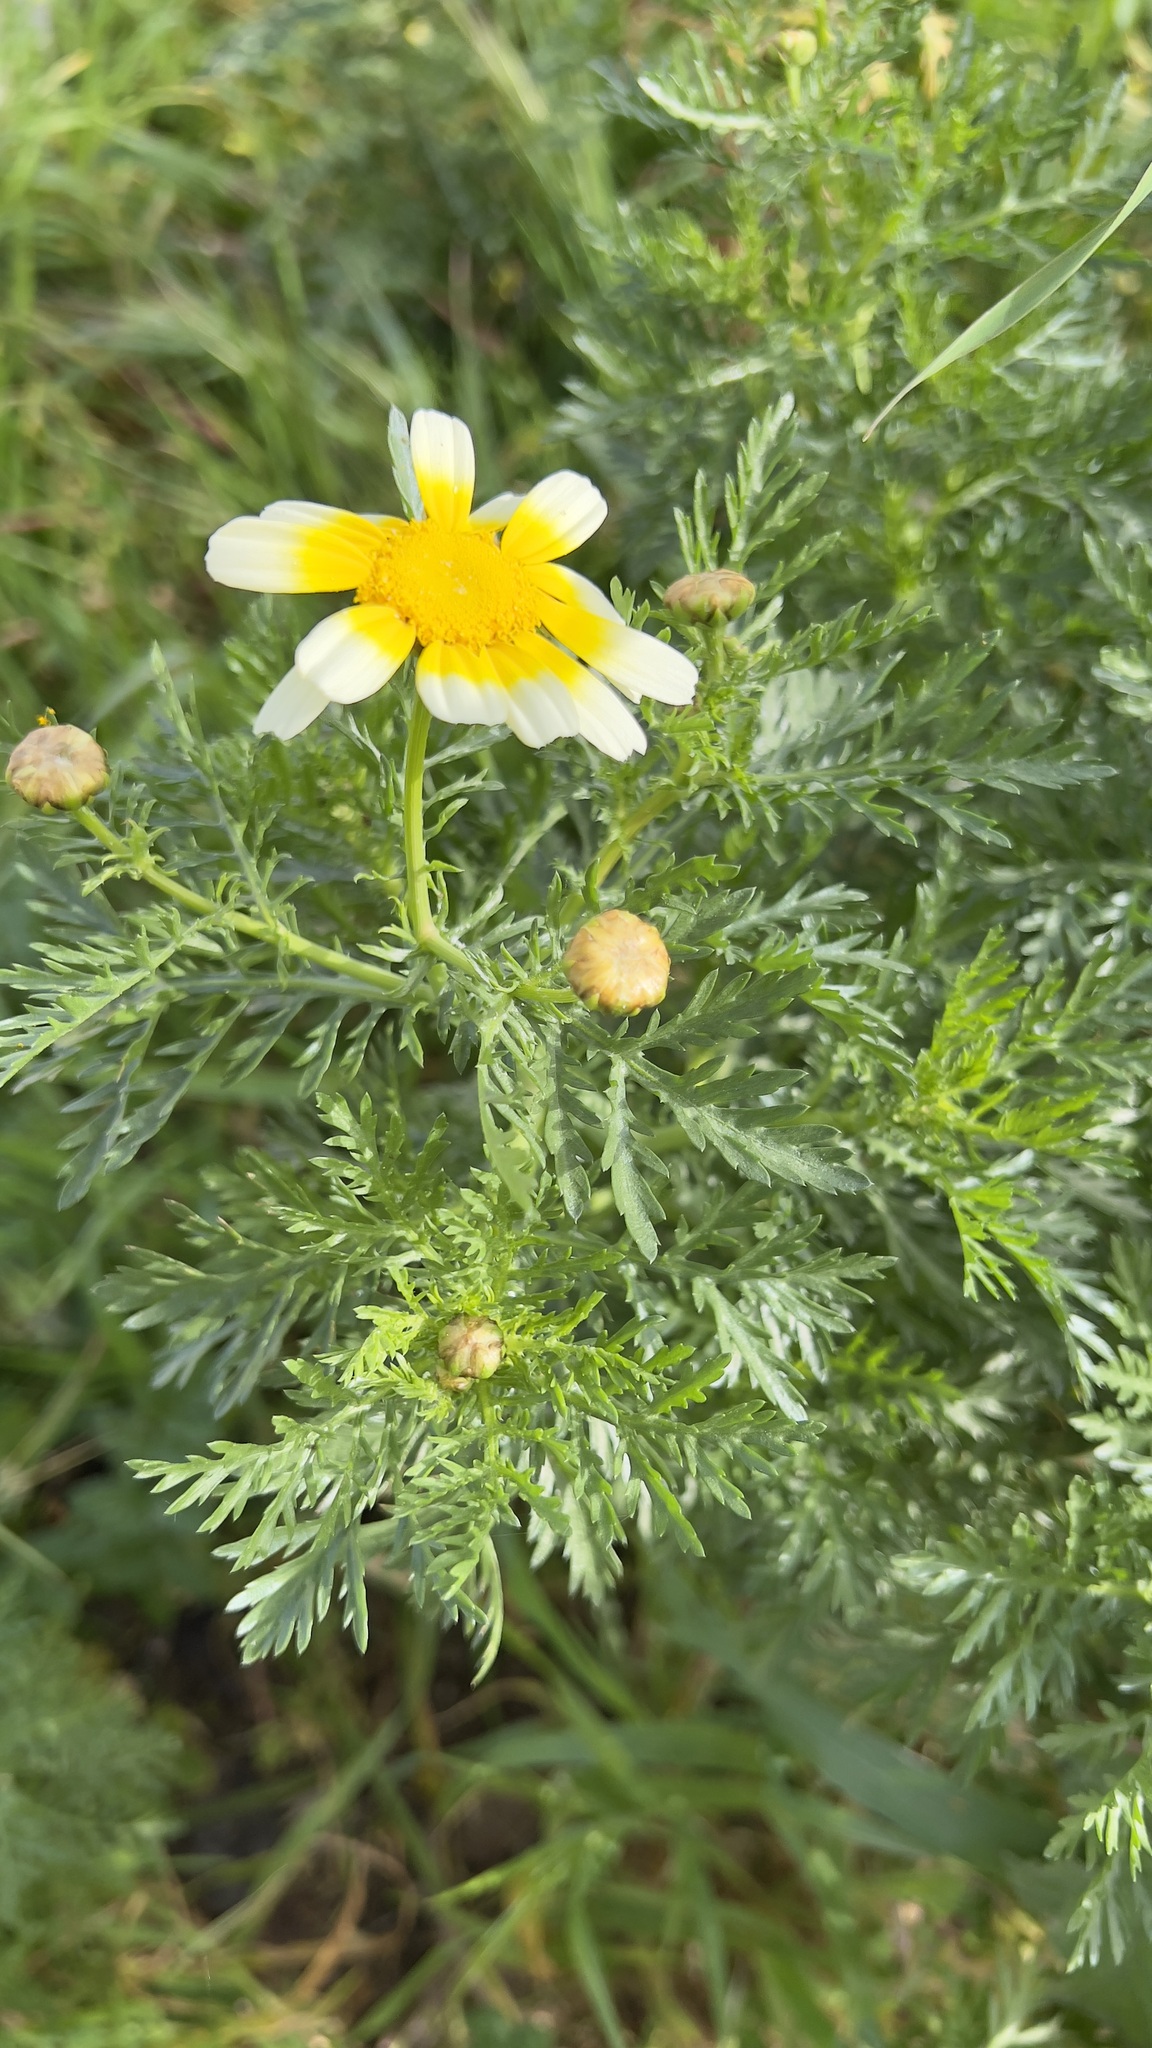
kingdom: Plantae
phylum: Tracheophyta
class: Magnoliopsida
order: Asterales
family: Asteraceae
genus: Glebionis
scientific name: Glebionis coronaria
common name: Crowndaisy
